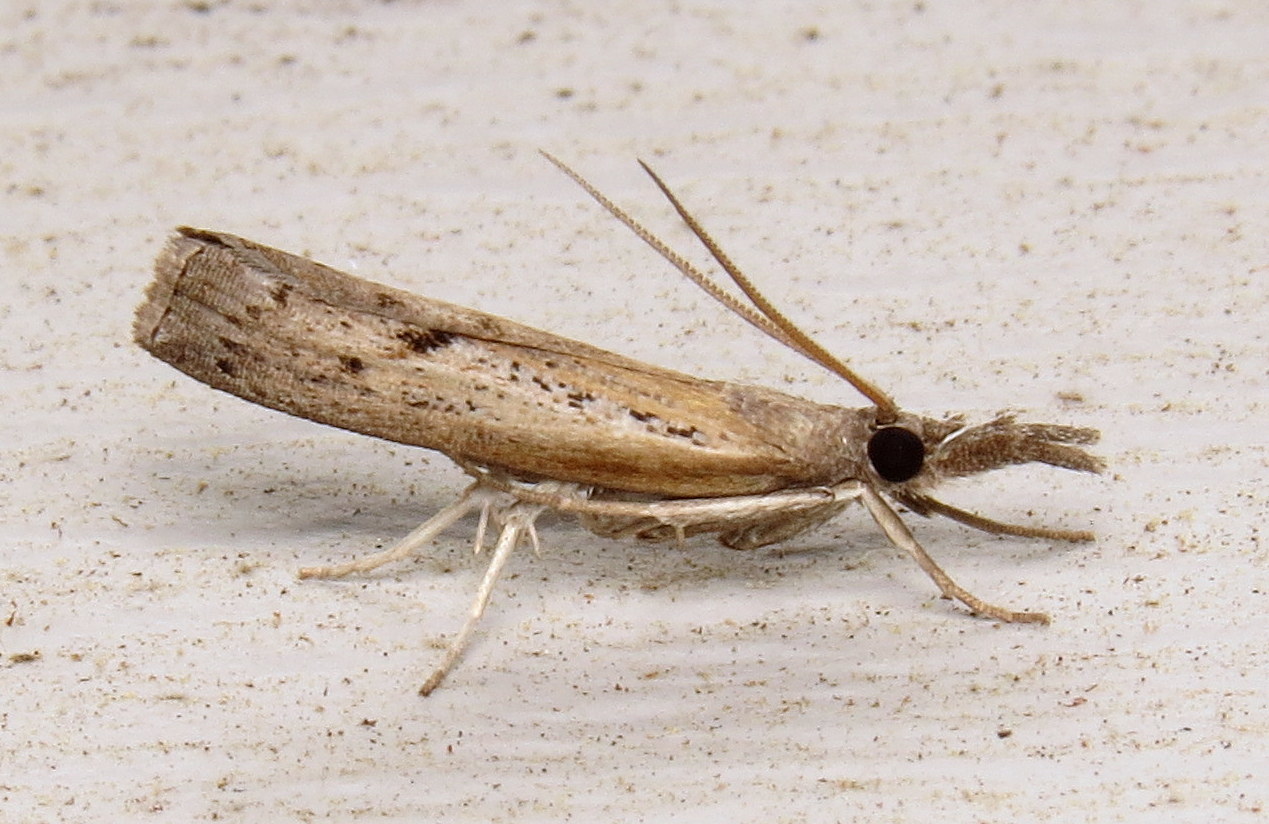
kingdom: Animalia
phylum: Arthropoda
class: Insecta
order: Lepidoptera
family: Crambidae
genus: Fissicrambus
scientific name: Fissicrambus mutabilis
